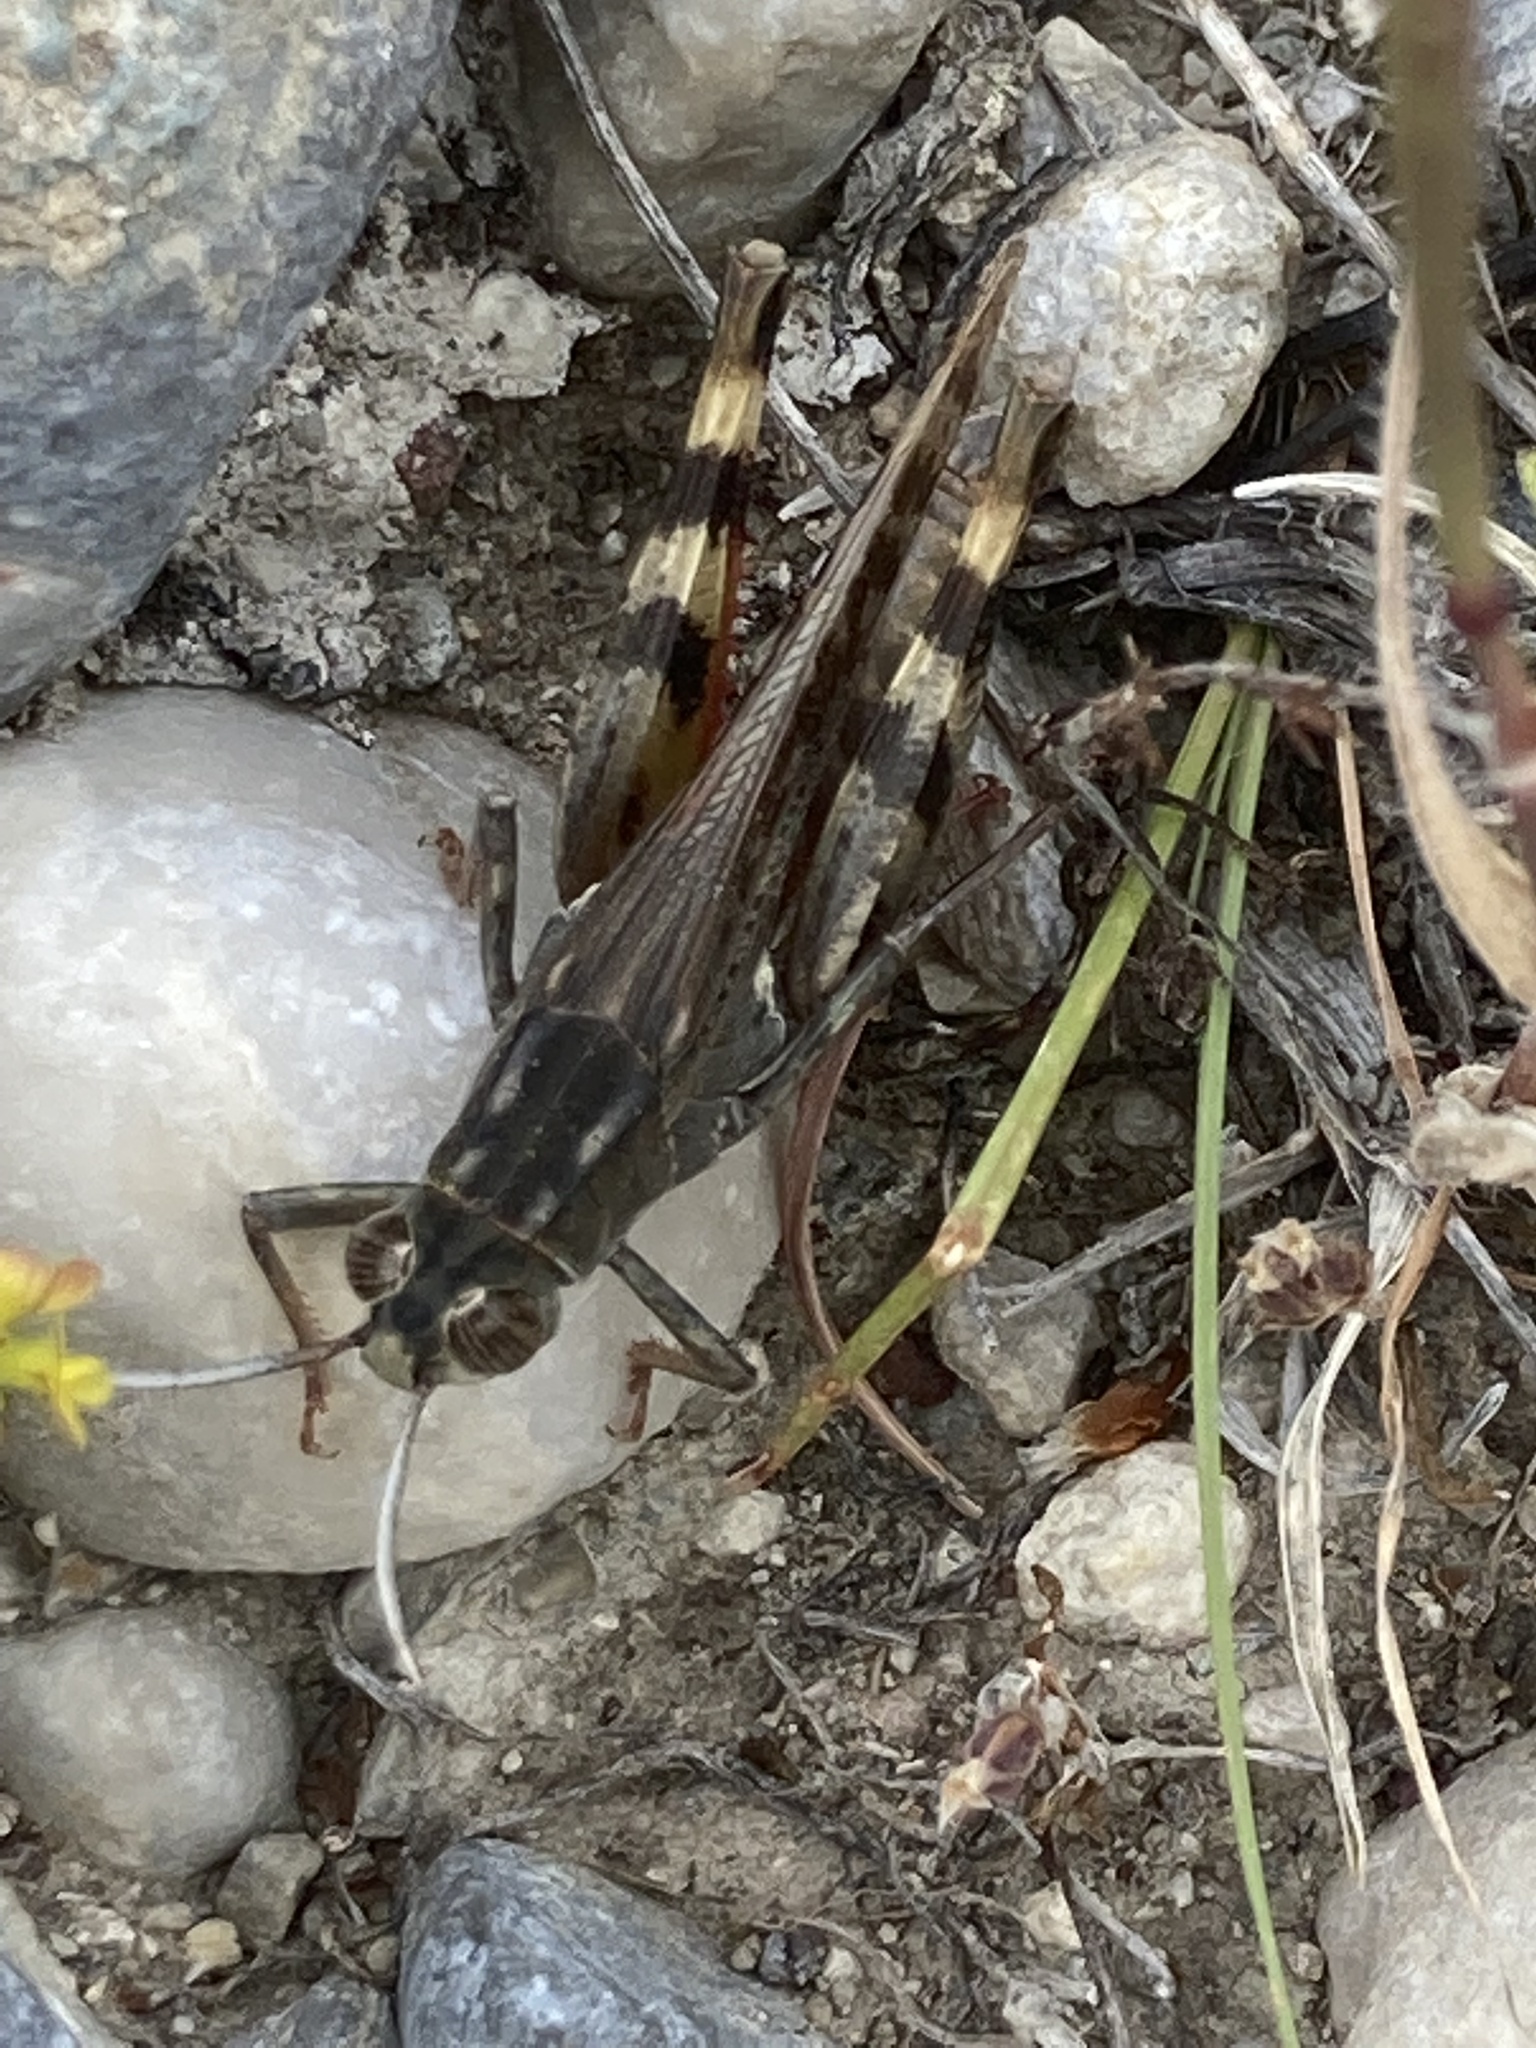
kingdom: Animalia
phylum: Arthropoda
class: Insecta
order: Orthoptera
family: Acrididae
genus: Heteracris
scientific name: Heteracris littoralis
